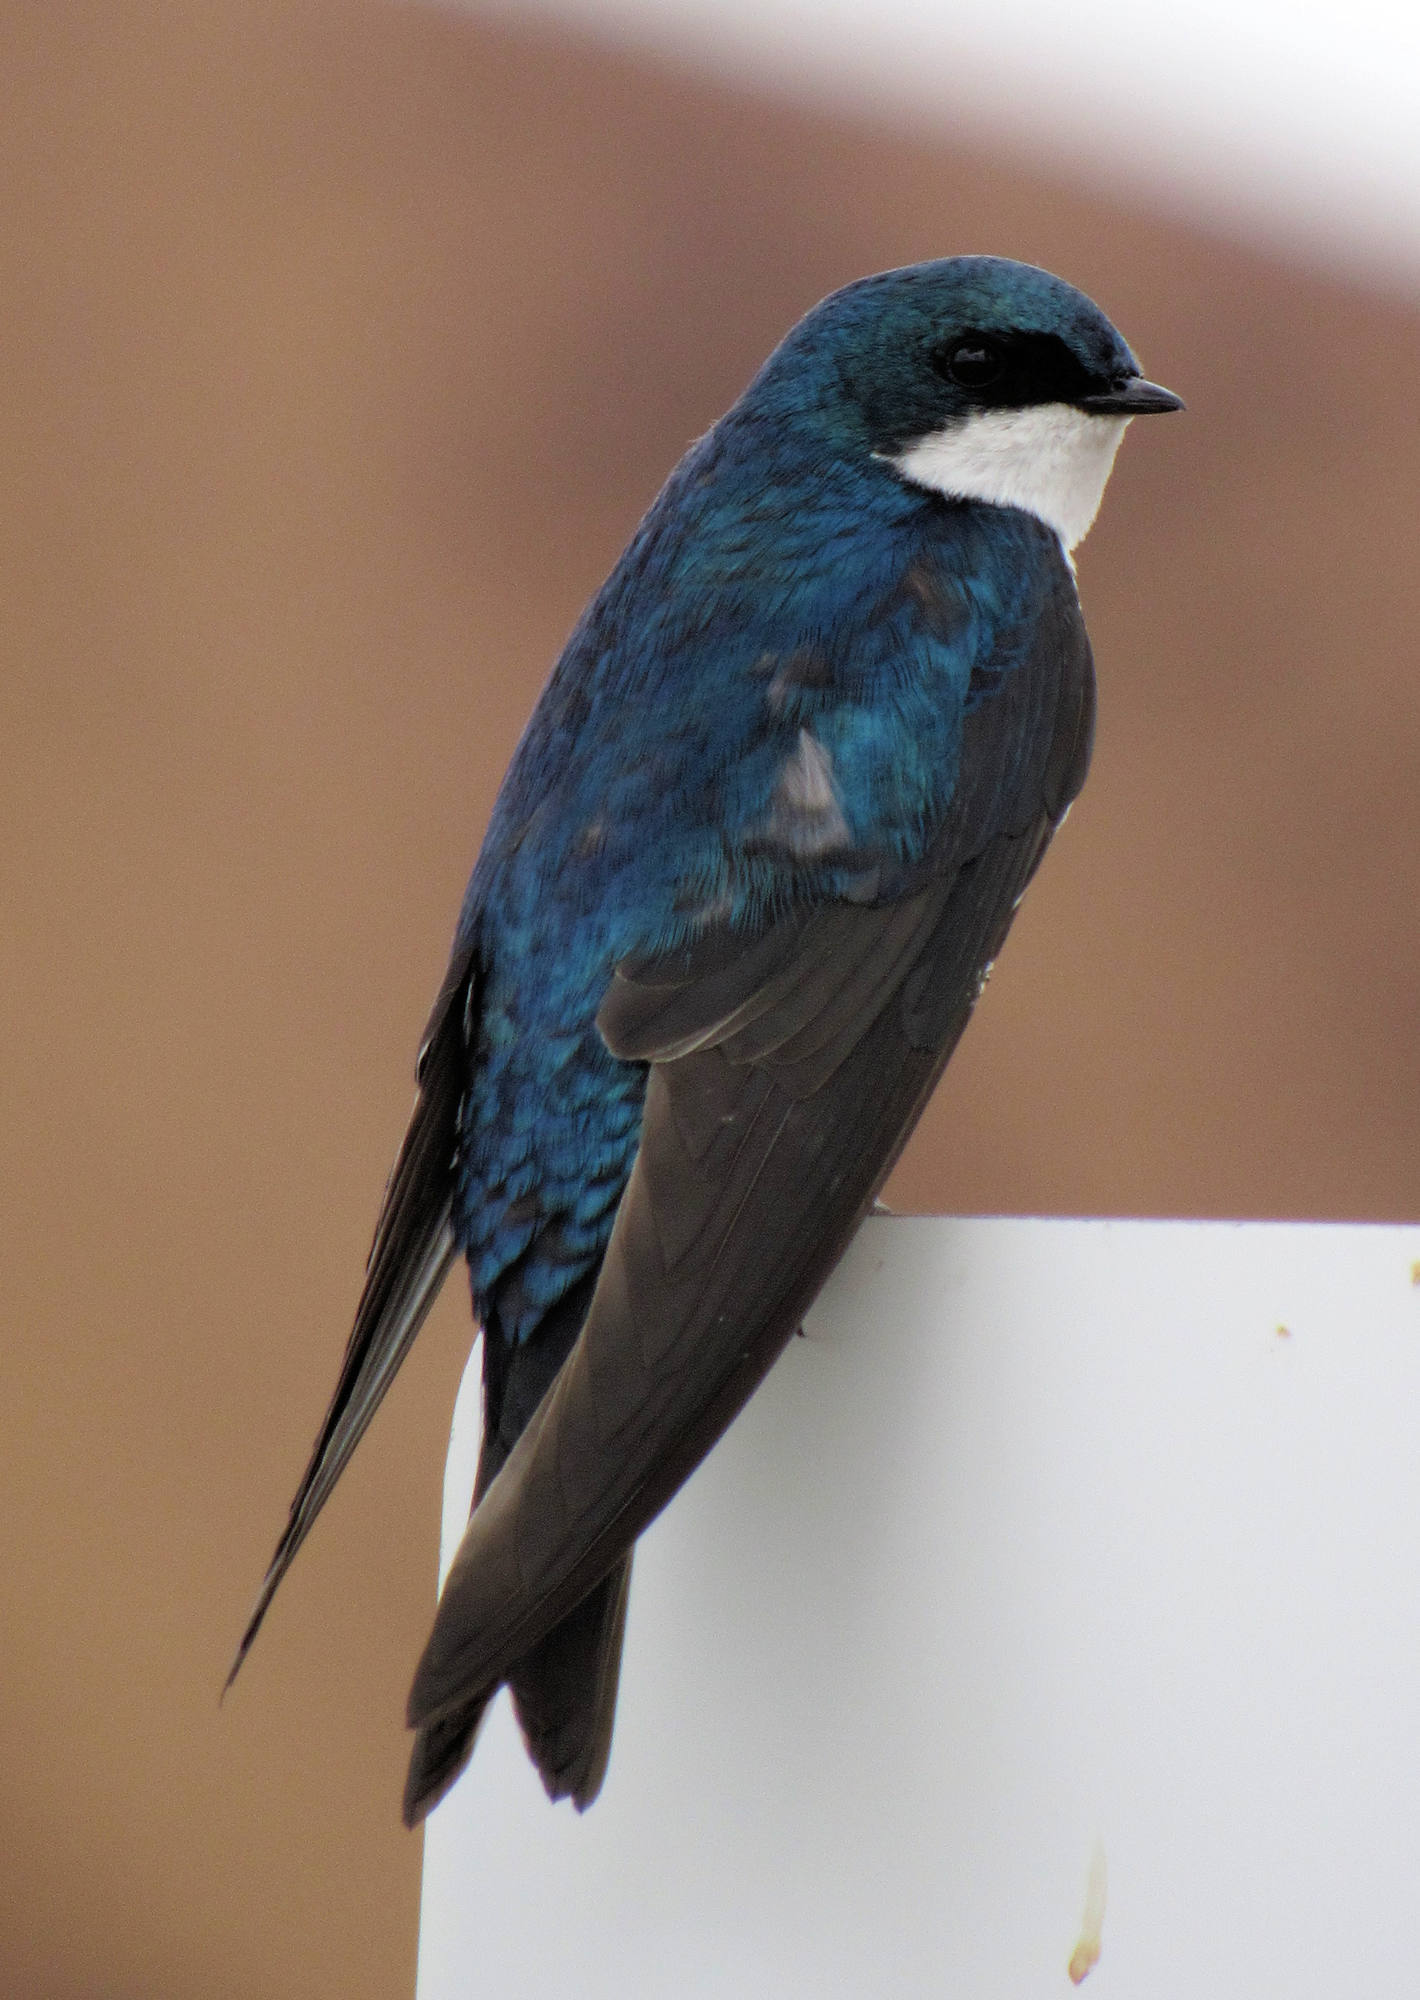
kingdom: Animalia
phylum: Chordata
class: Aves
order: Passeriformes
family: Hirundinidae
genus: Tachycineta
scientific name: Tachycineta bicolor
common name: Tree swallow
